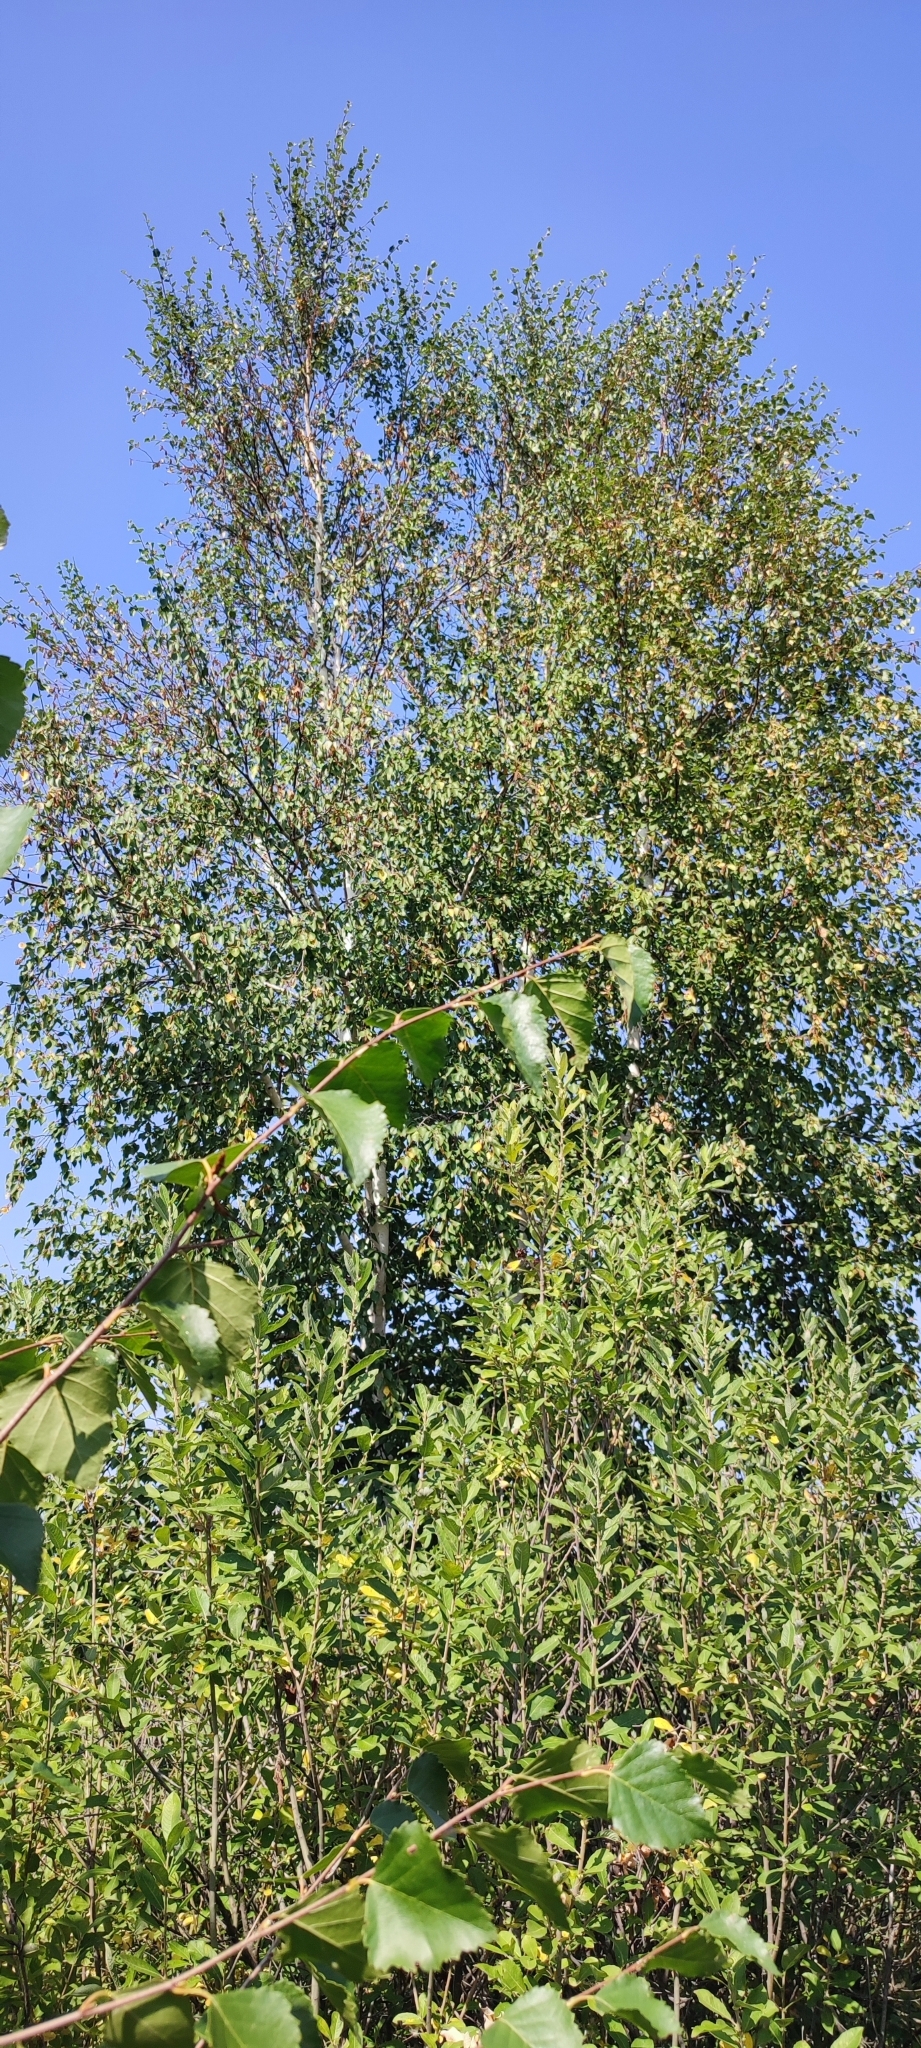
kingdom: Plantae
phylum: Tracheophyta
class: Magnoliopsida
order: Fagales
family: Betulaceae
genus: Betula
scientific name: Betula pendula
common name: Silver birch
